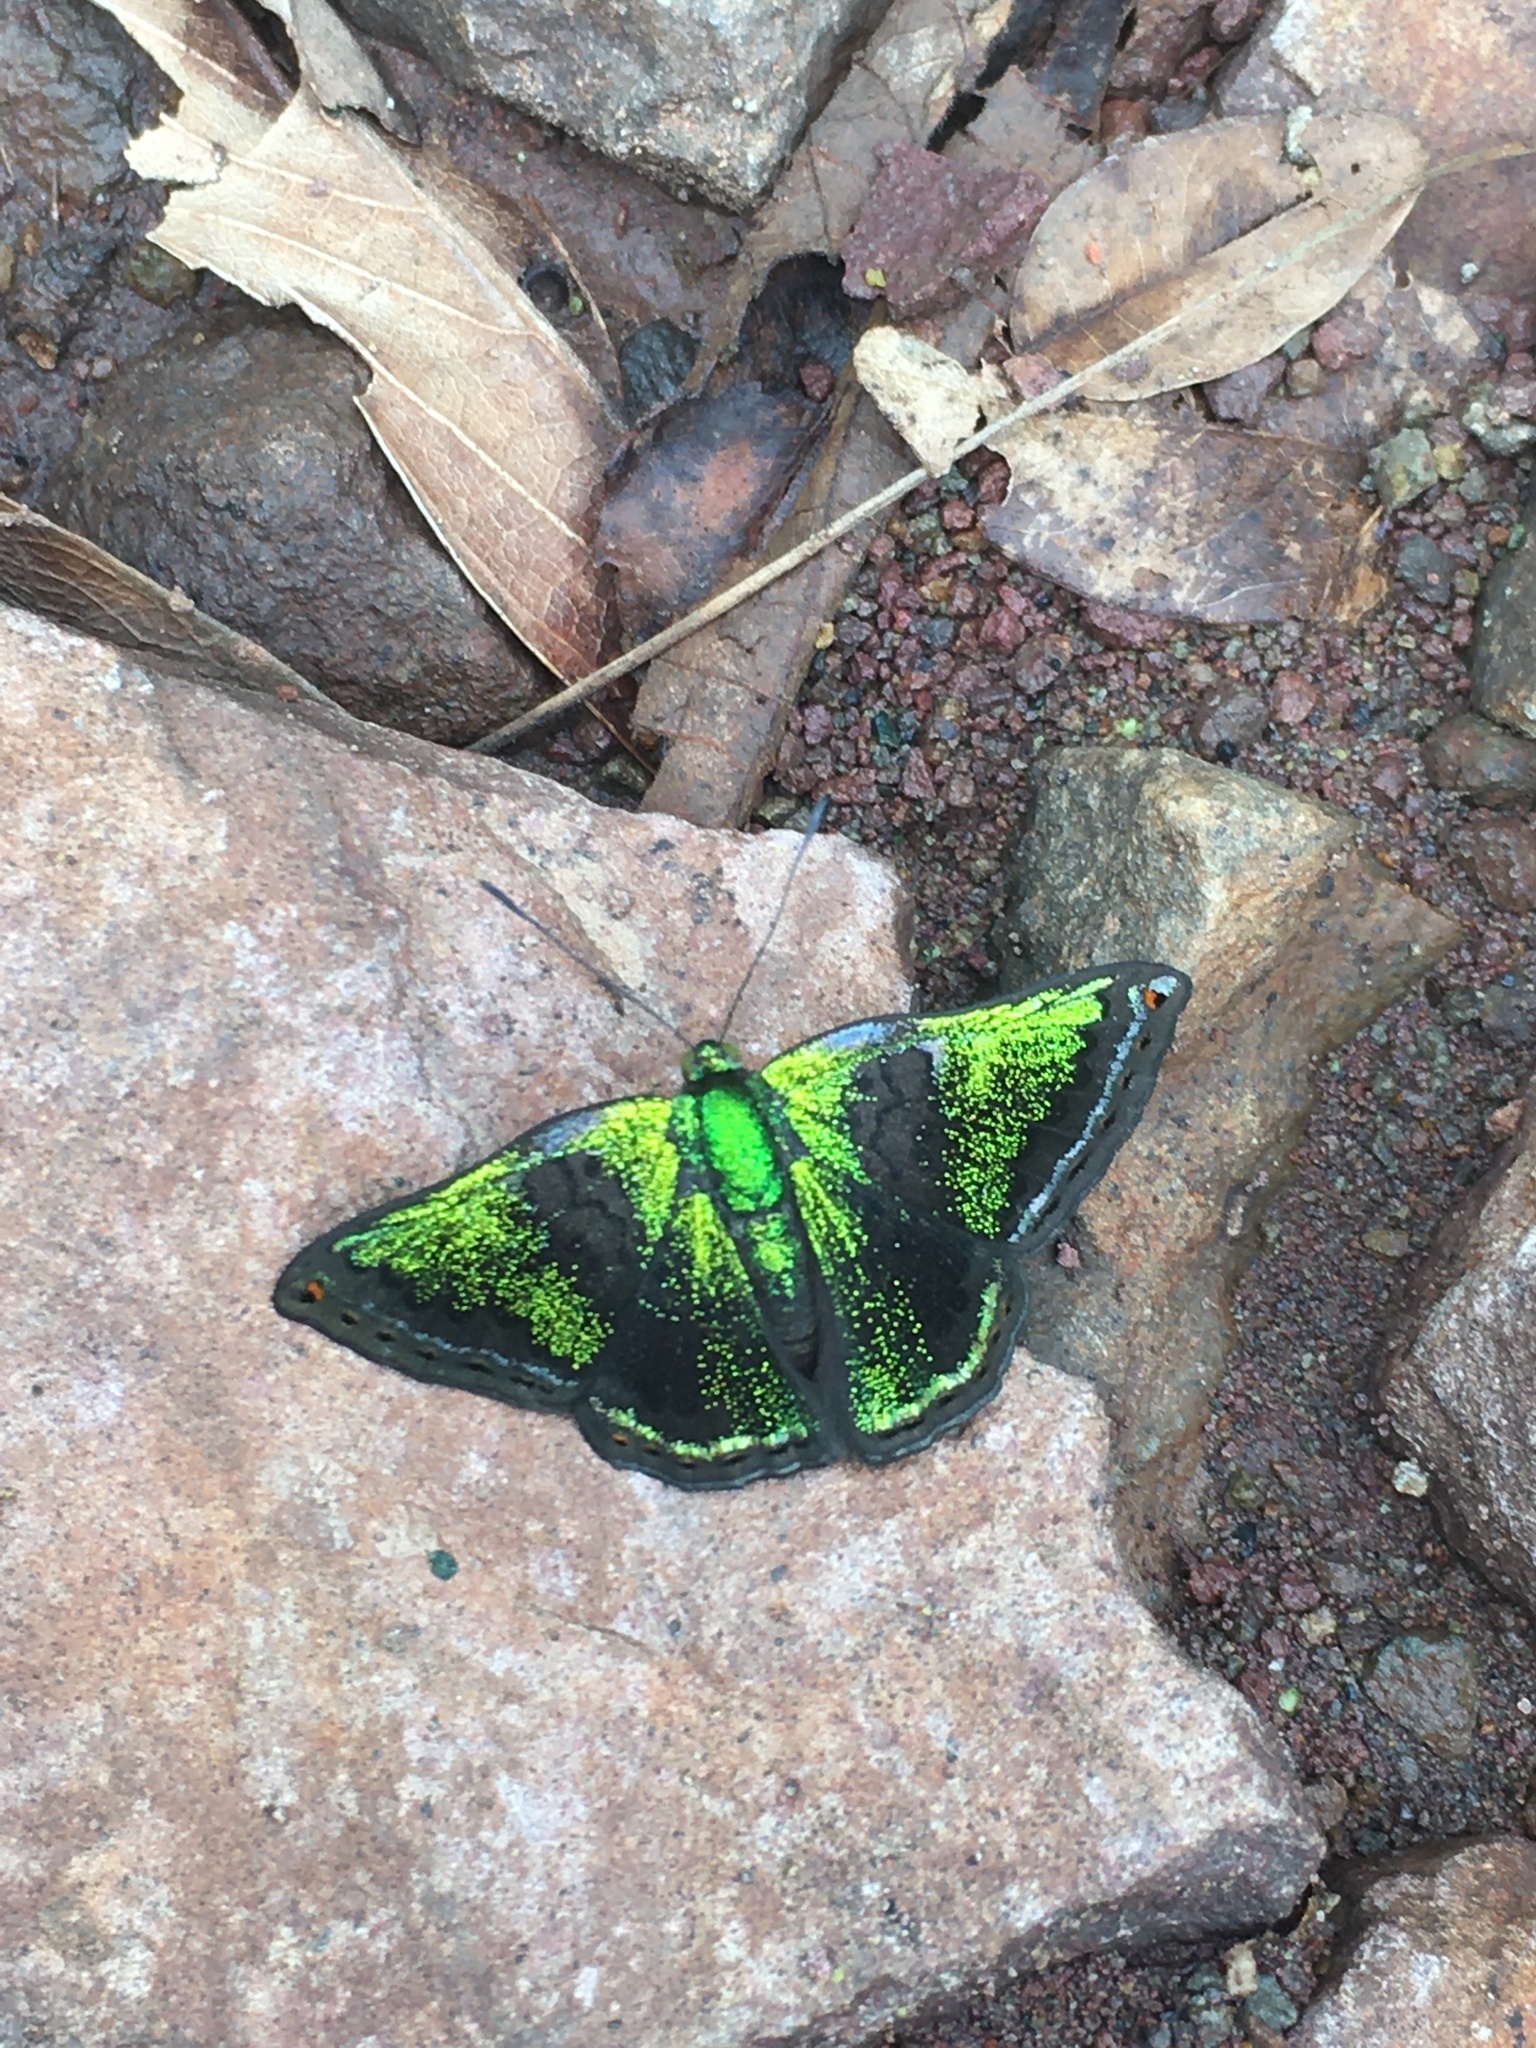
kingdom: Animalia
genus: Caria
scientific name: Caria castalia
